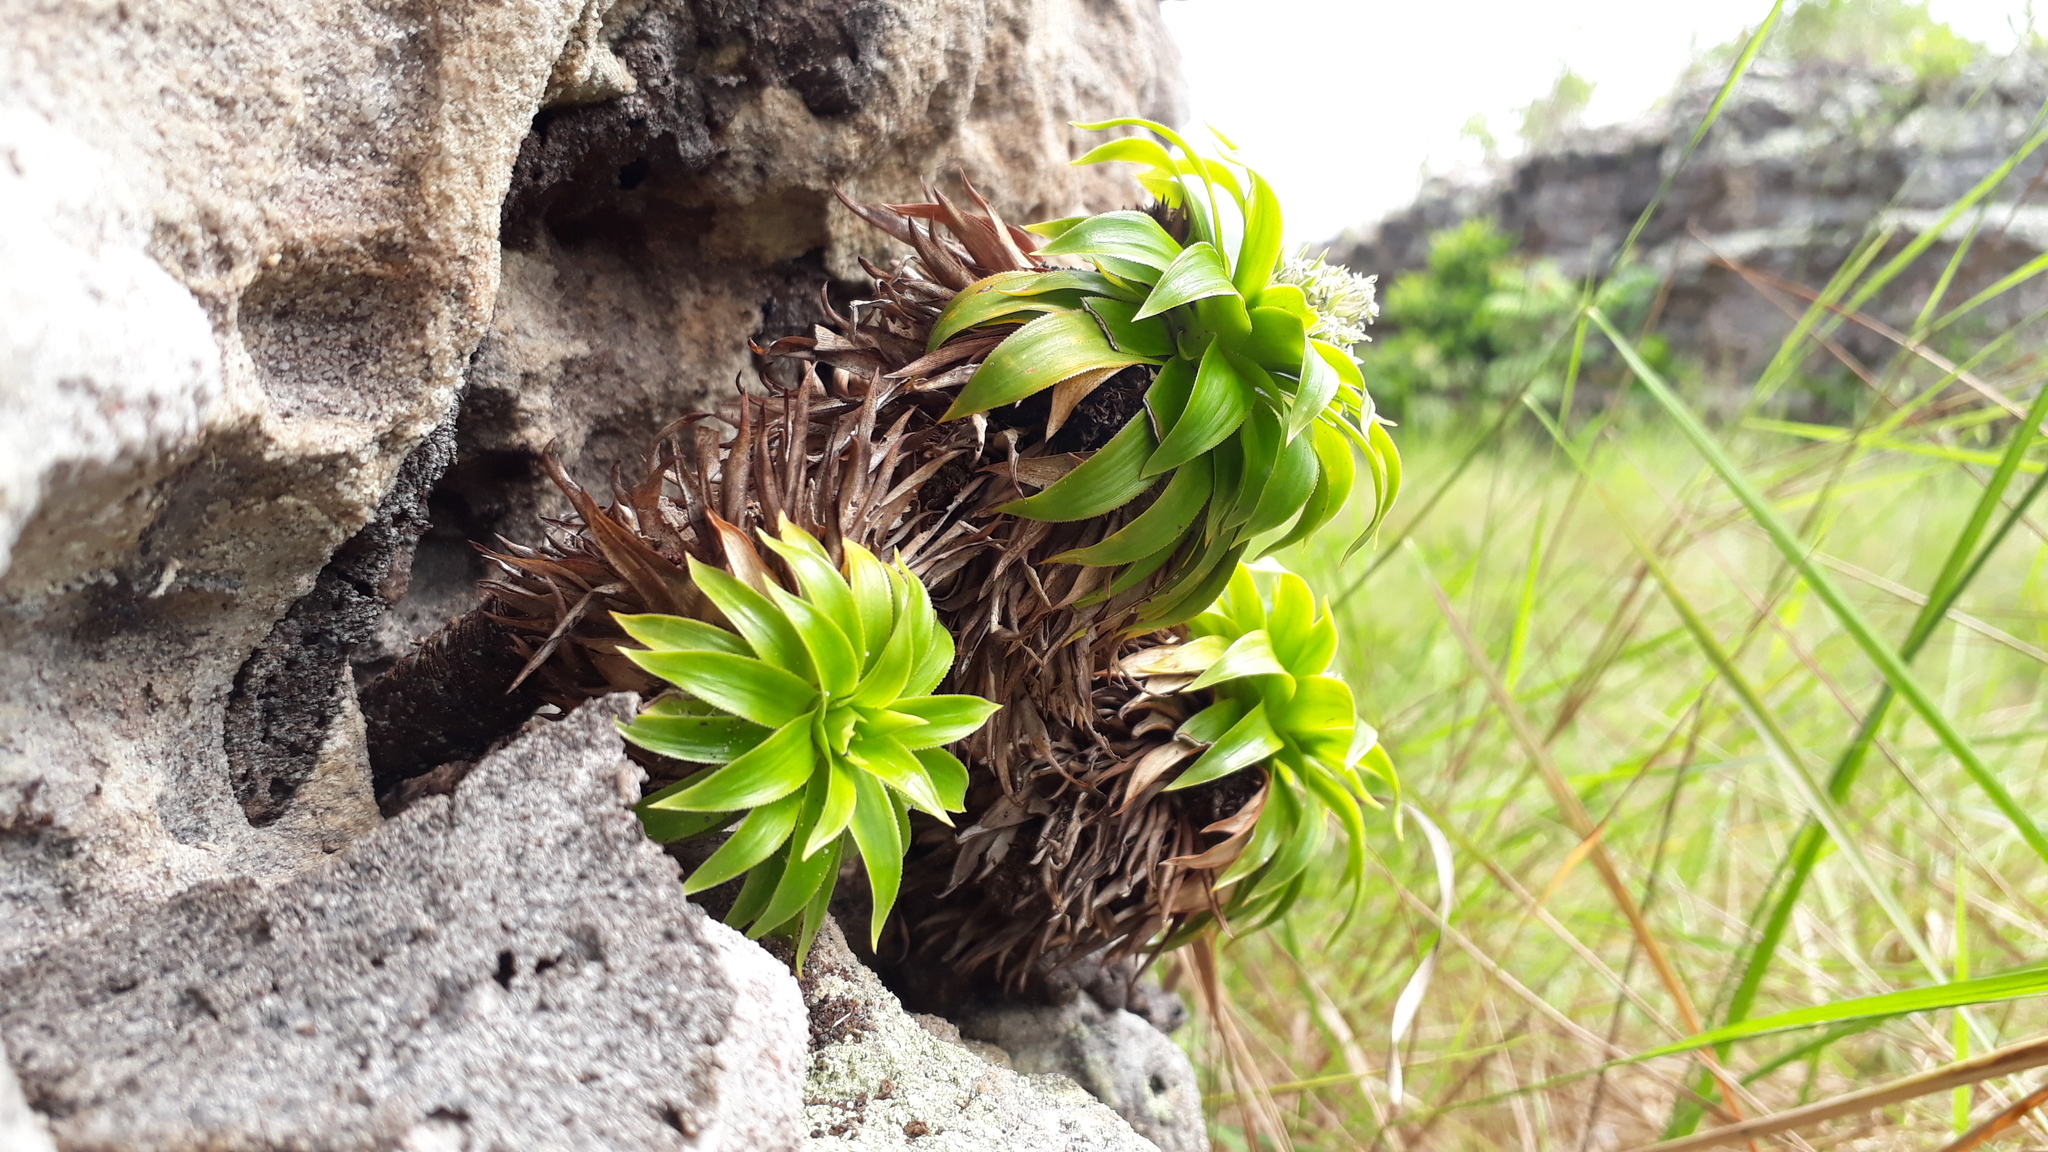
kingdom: Plantae
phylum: Tracheophyta
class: Liliopsida
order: Poales
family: Bromeliaceae
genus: Navia
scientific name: Navia acaulis
